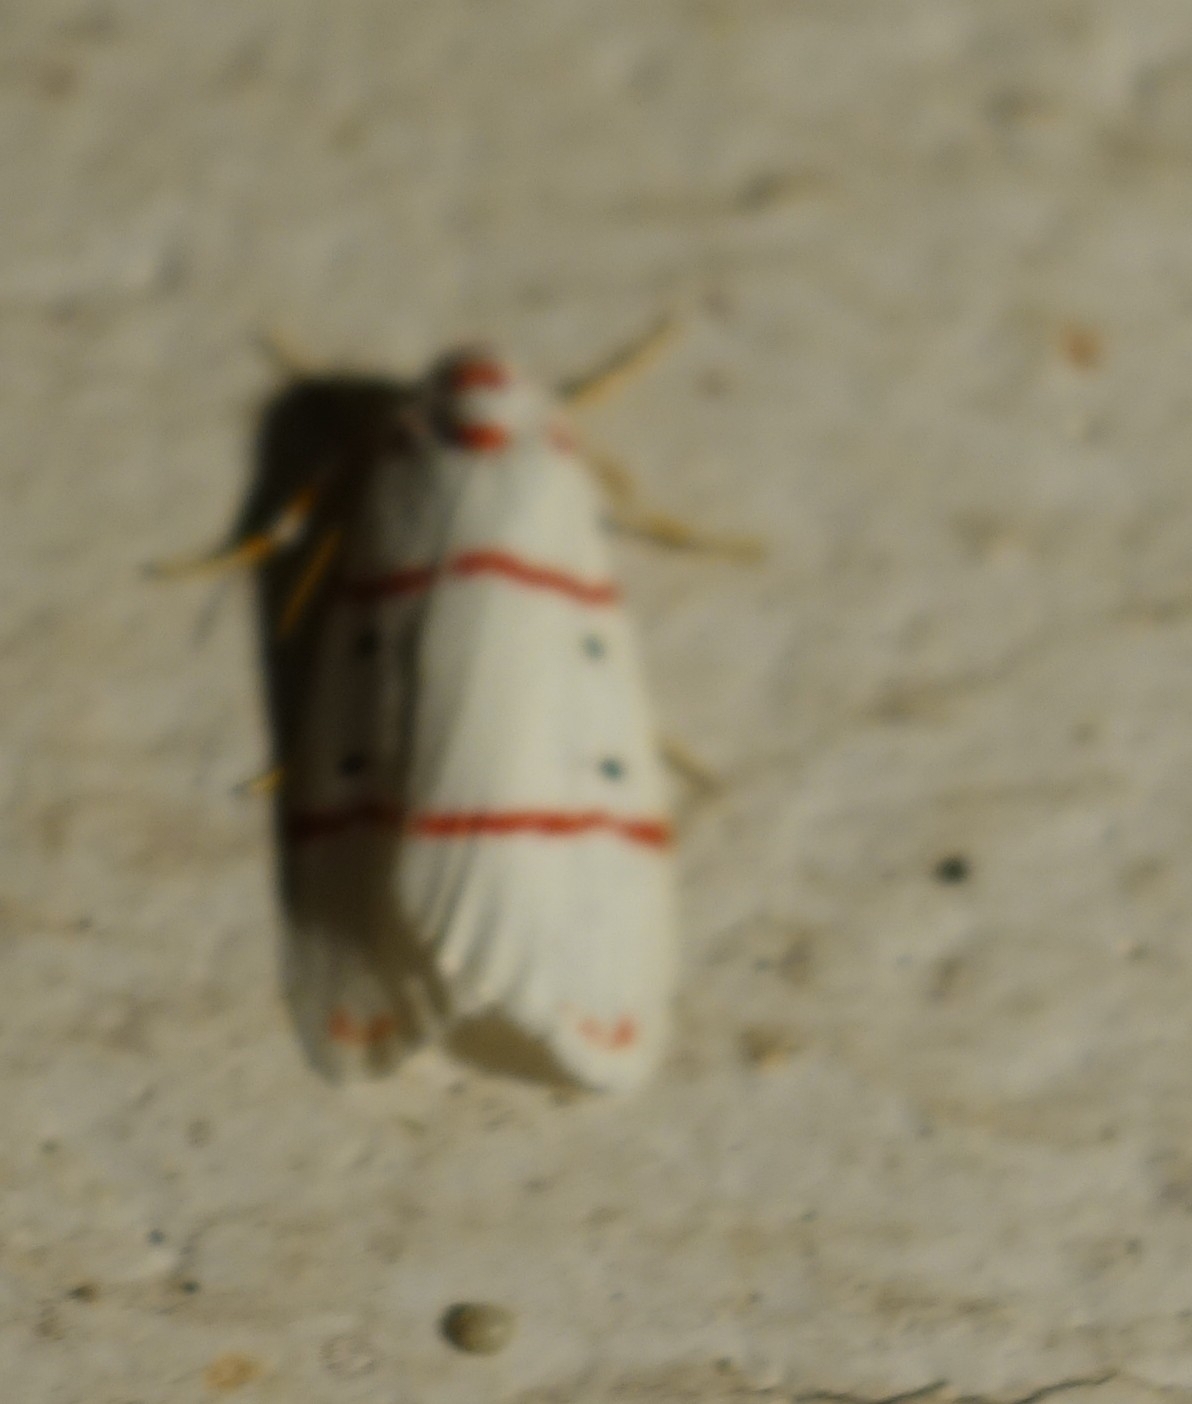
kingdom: Animalia
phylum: Arthropoda
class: Insecta
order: Lepidoptera
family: Erebidae
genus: Cyana
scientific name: Cyana pretoriae
